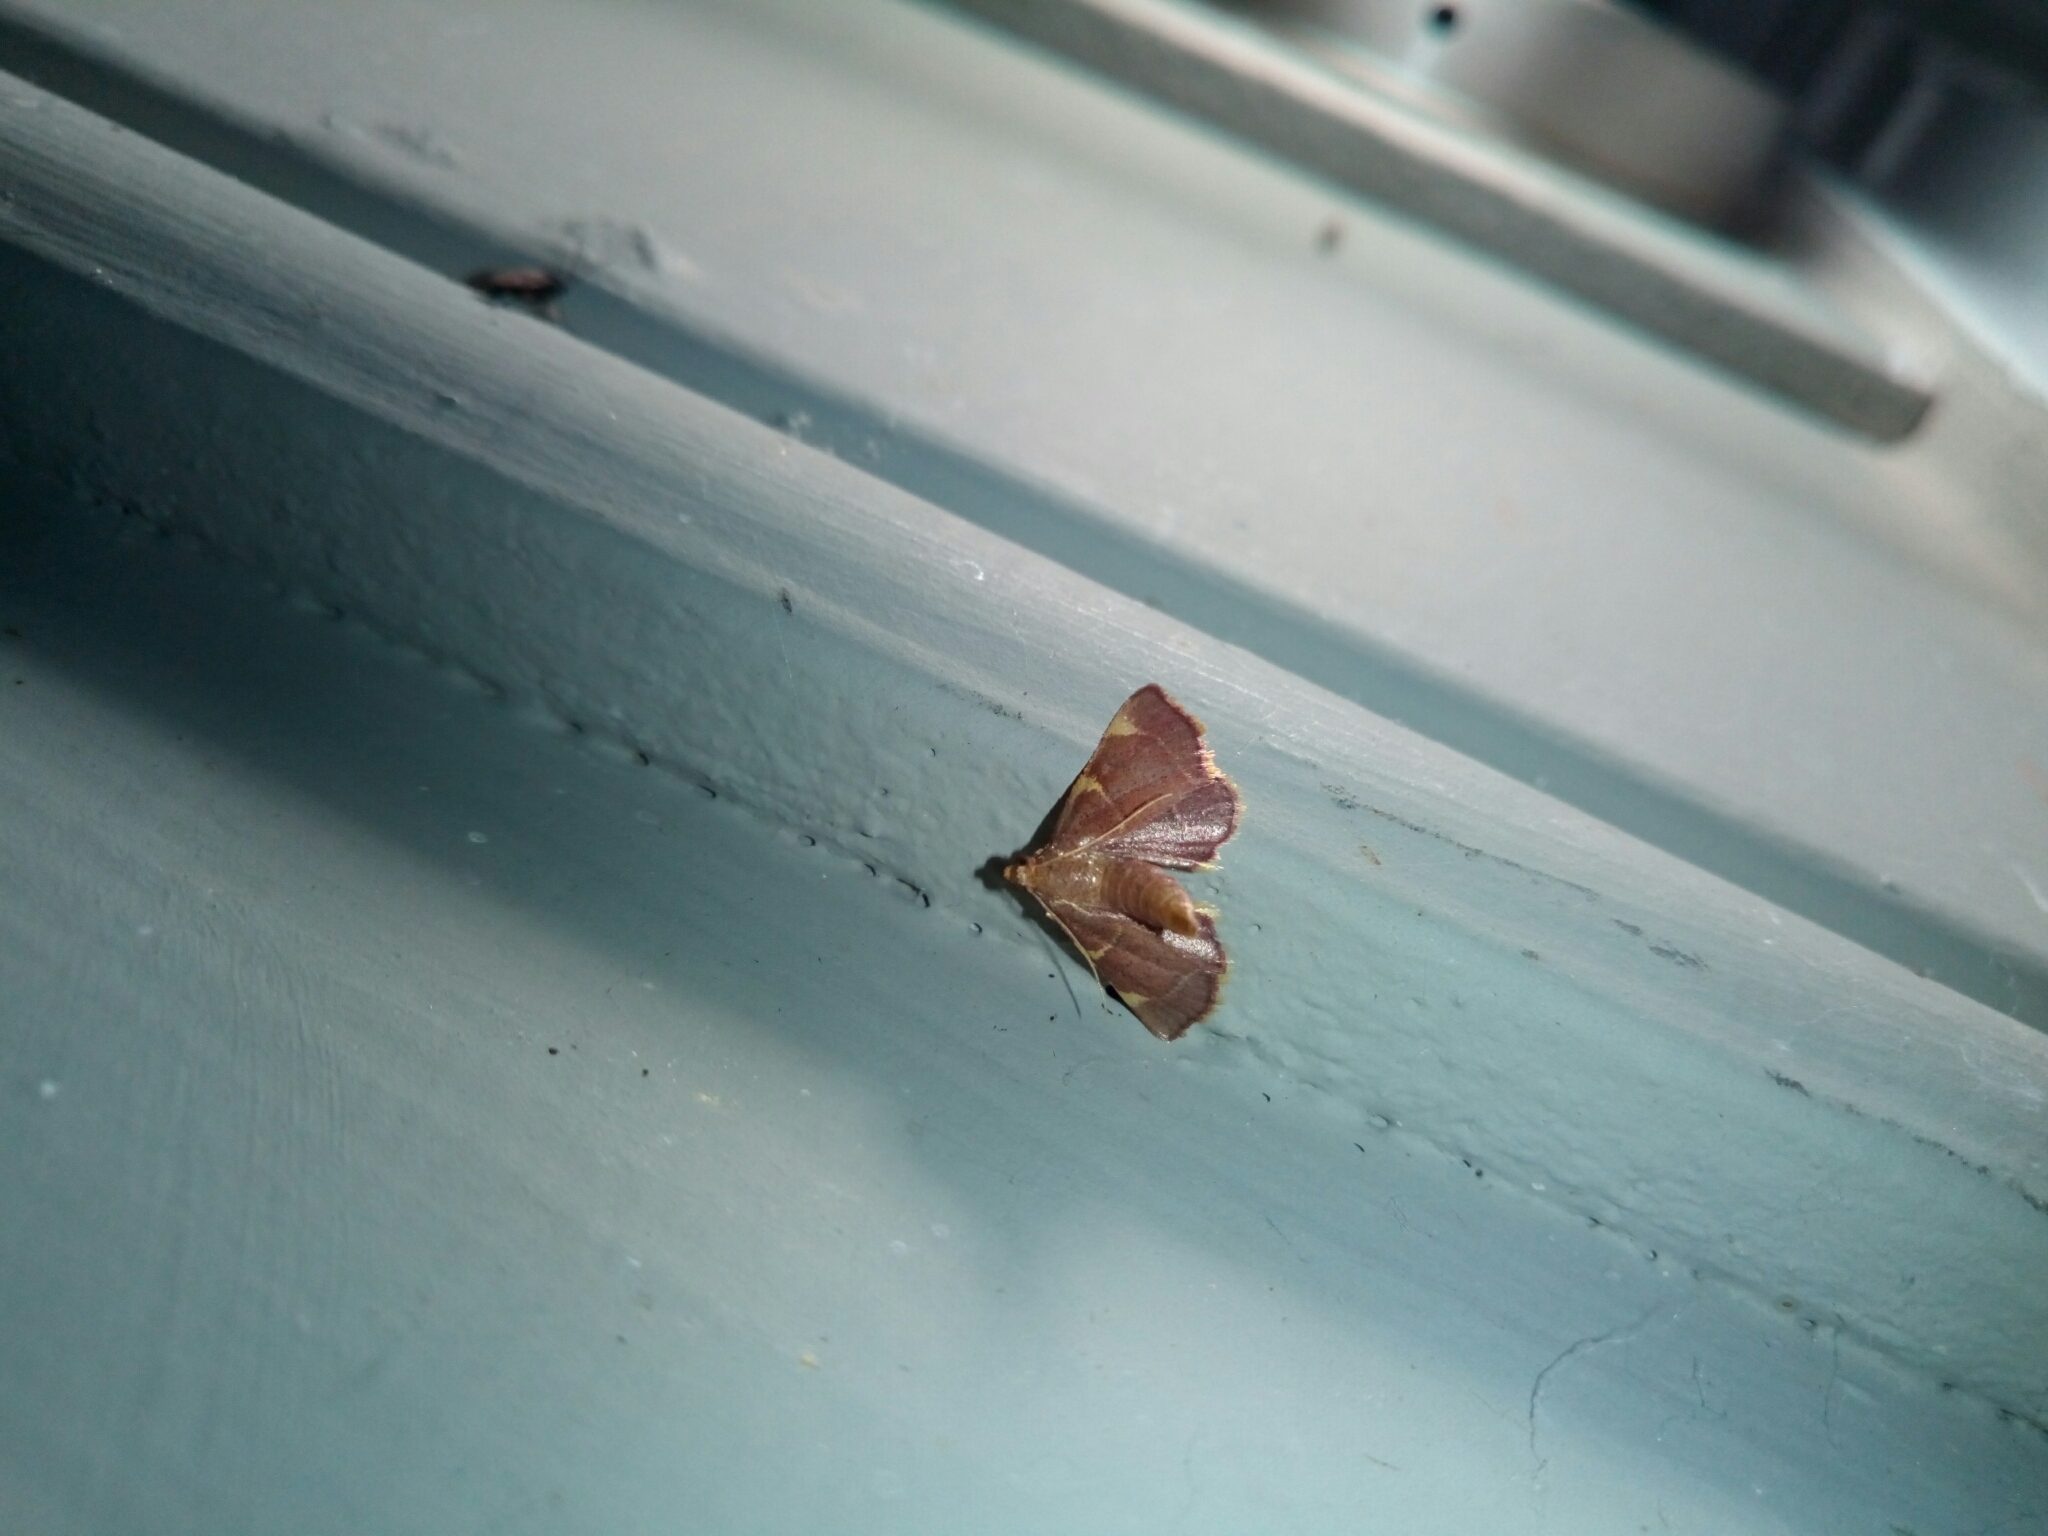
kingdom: Animalia
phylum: Arthropoda
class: Insecta
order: Lepidoptera
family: Pyralidae
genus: Hypsopygia
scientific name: Hypsopygia olinalis
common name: Yellow-fringed dolichomia moth
